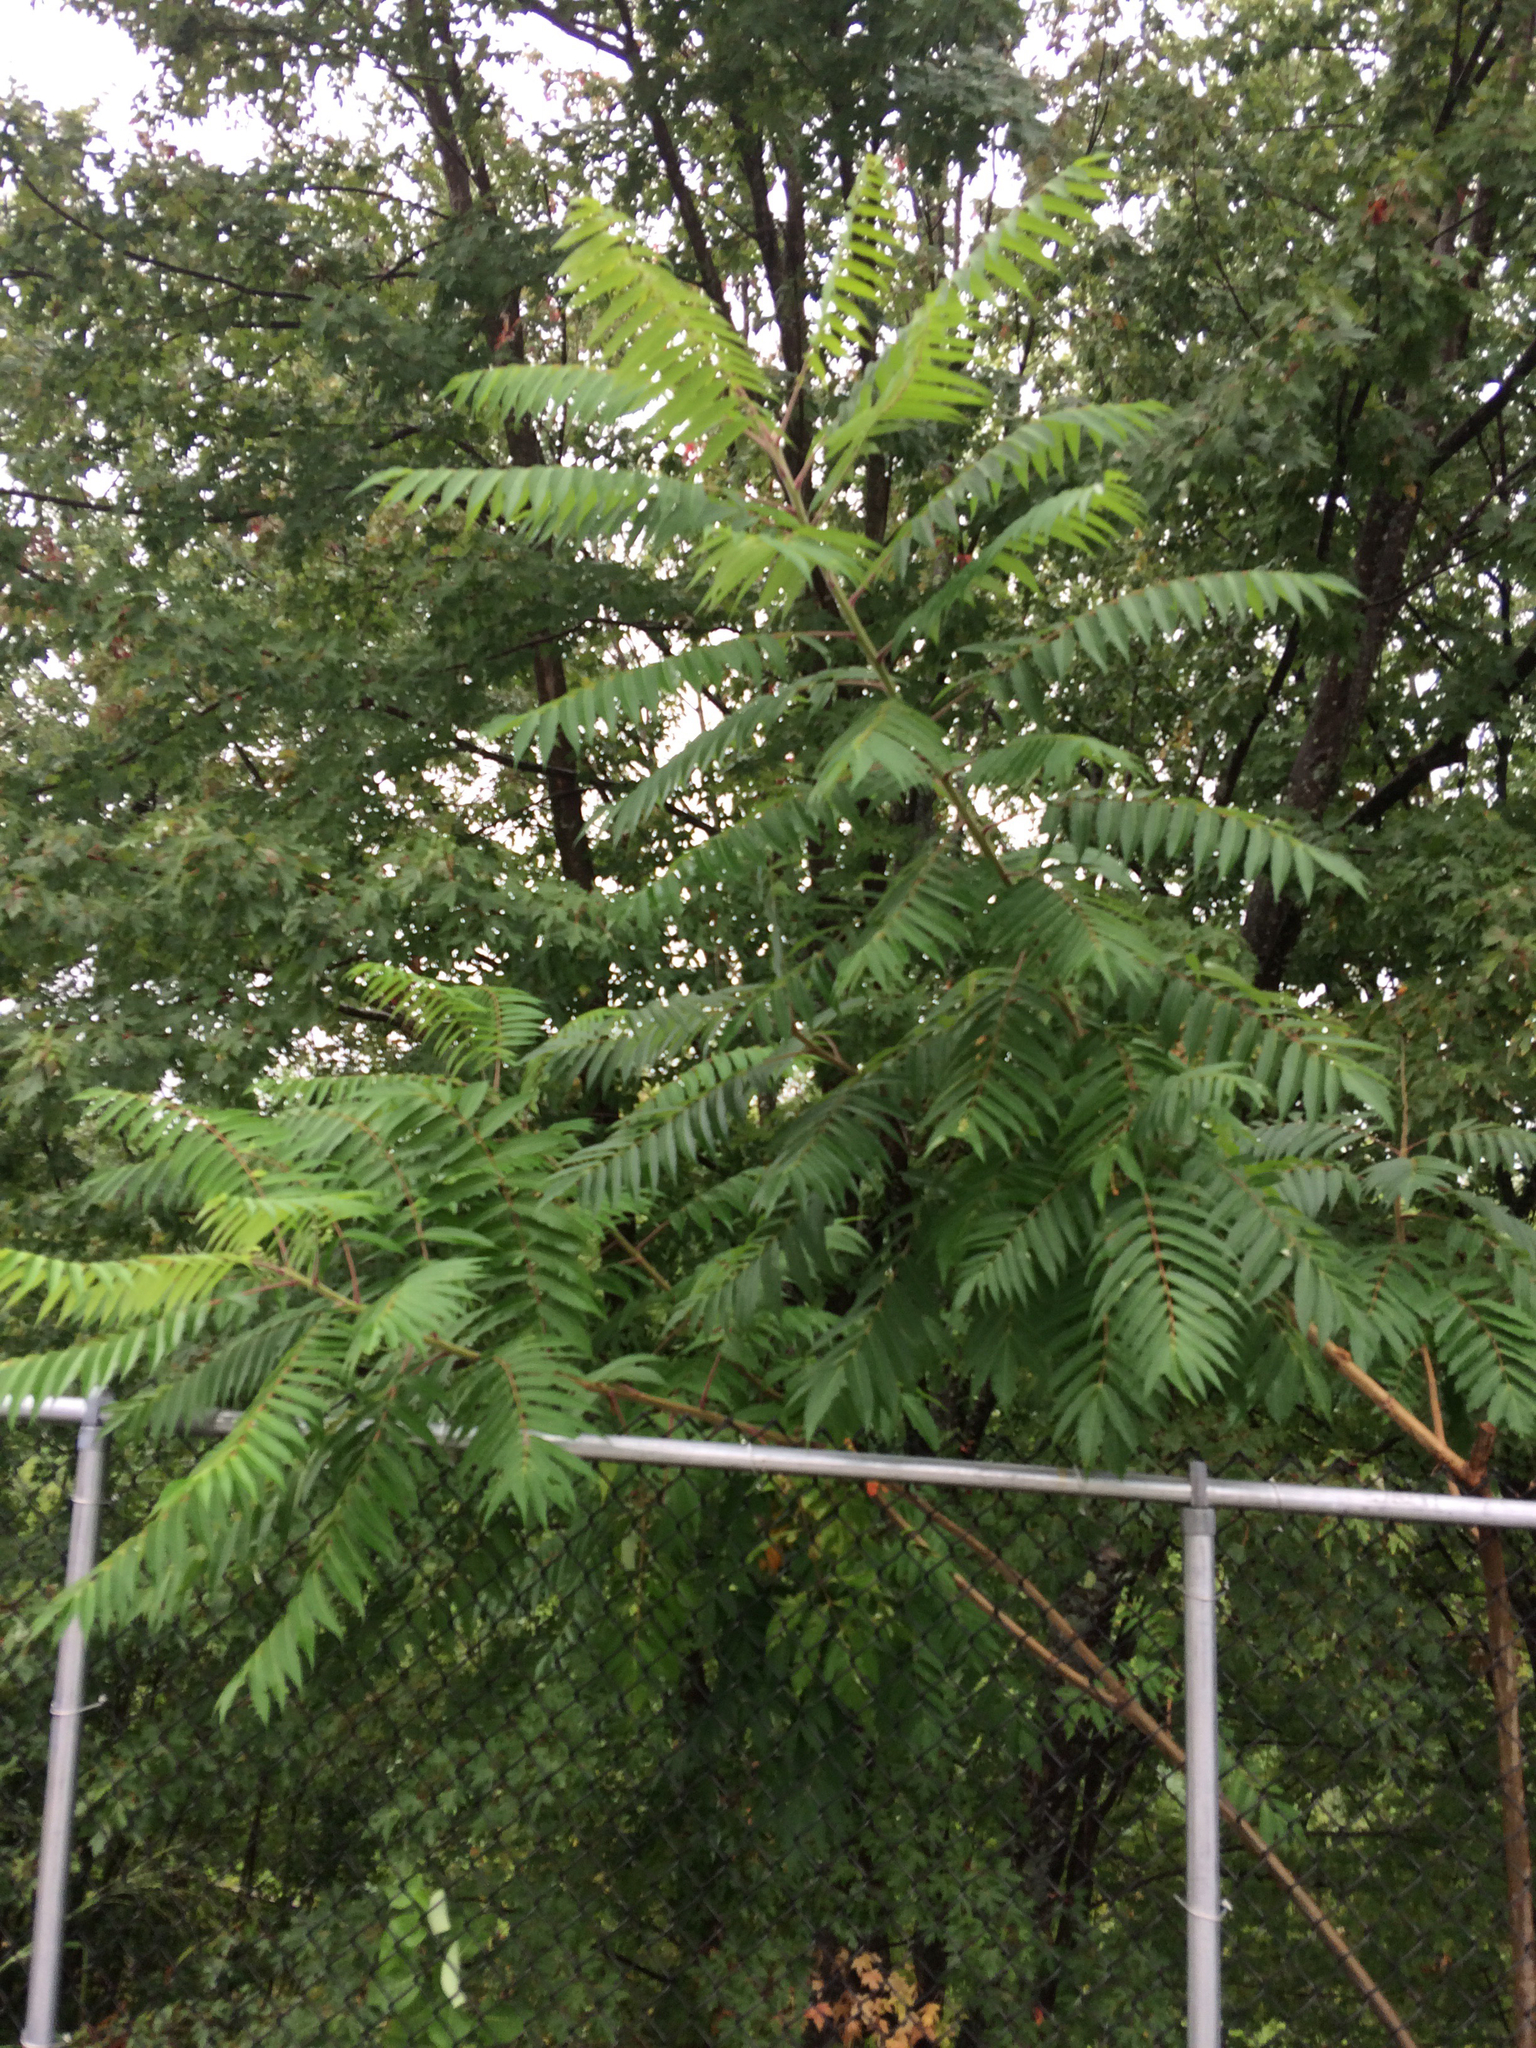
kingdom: Plantae
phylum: Tracheophyta
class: Magnoliopsida
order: Sapindales
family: Anacardiaceae
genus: Rhus
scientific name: Rhus typhina
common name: Staghorn sumac
